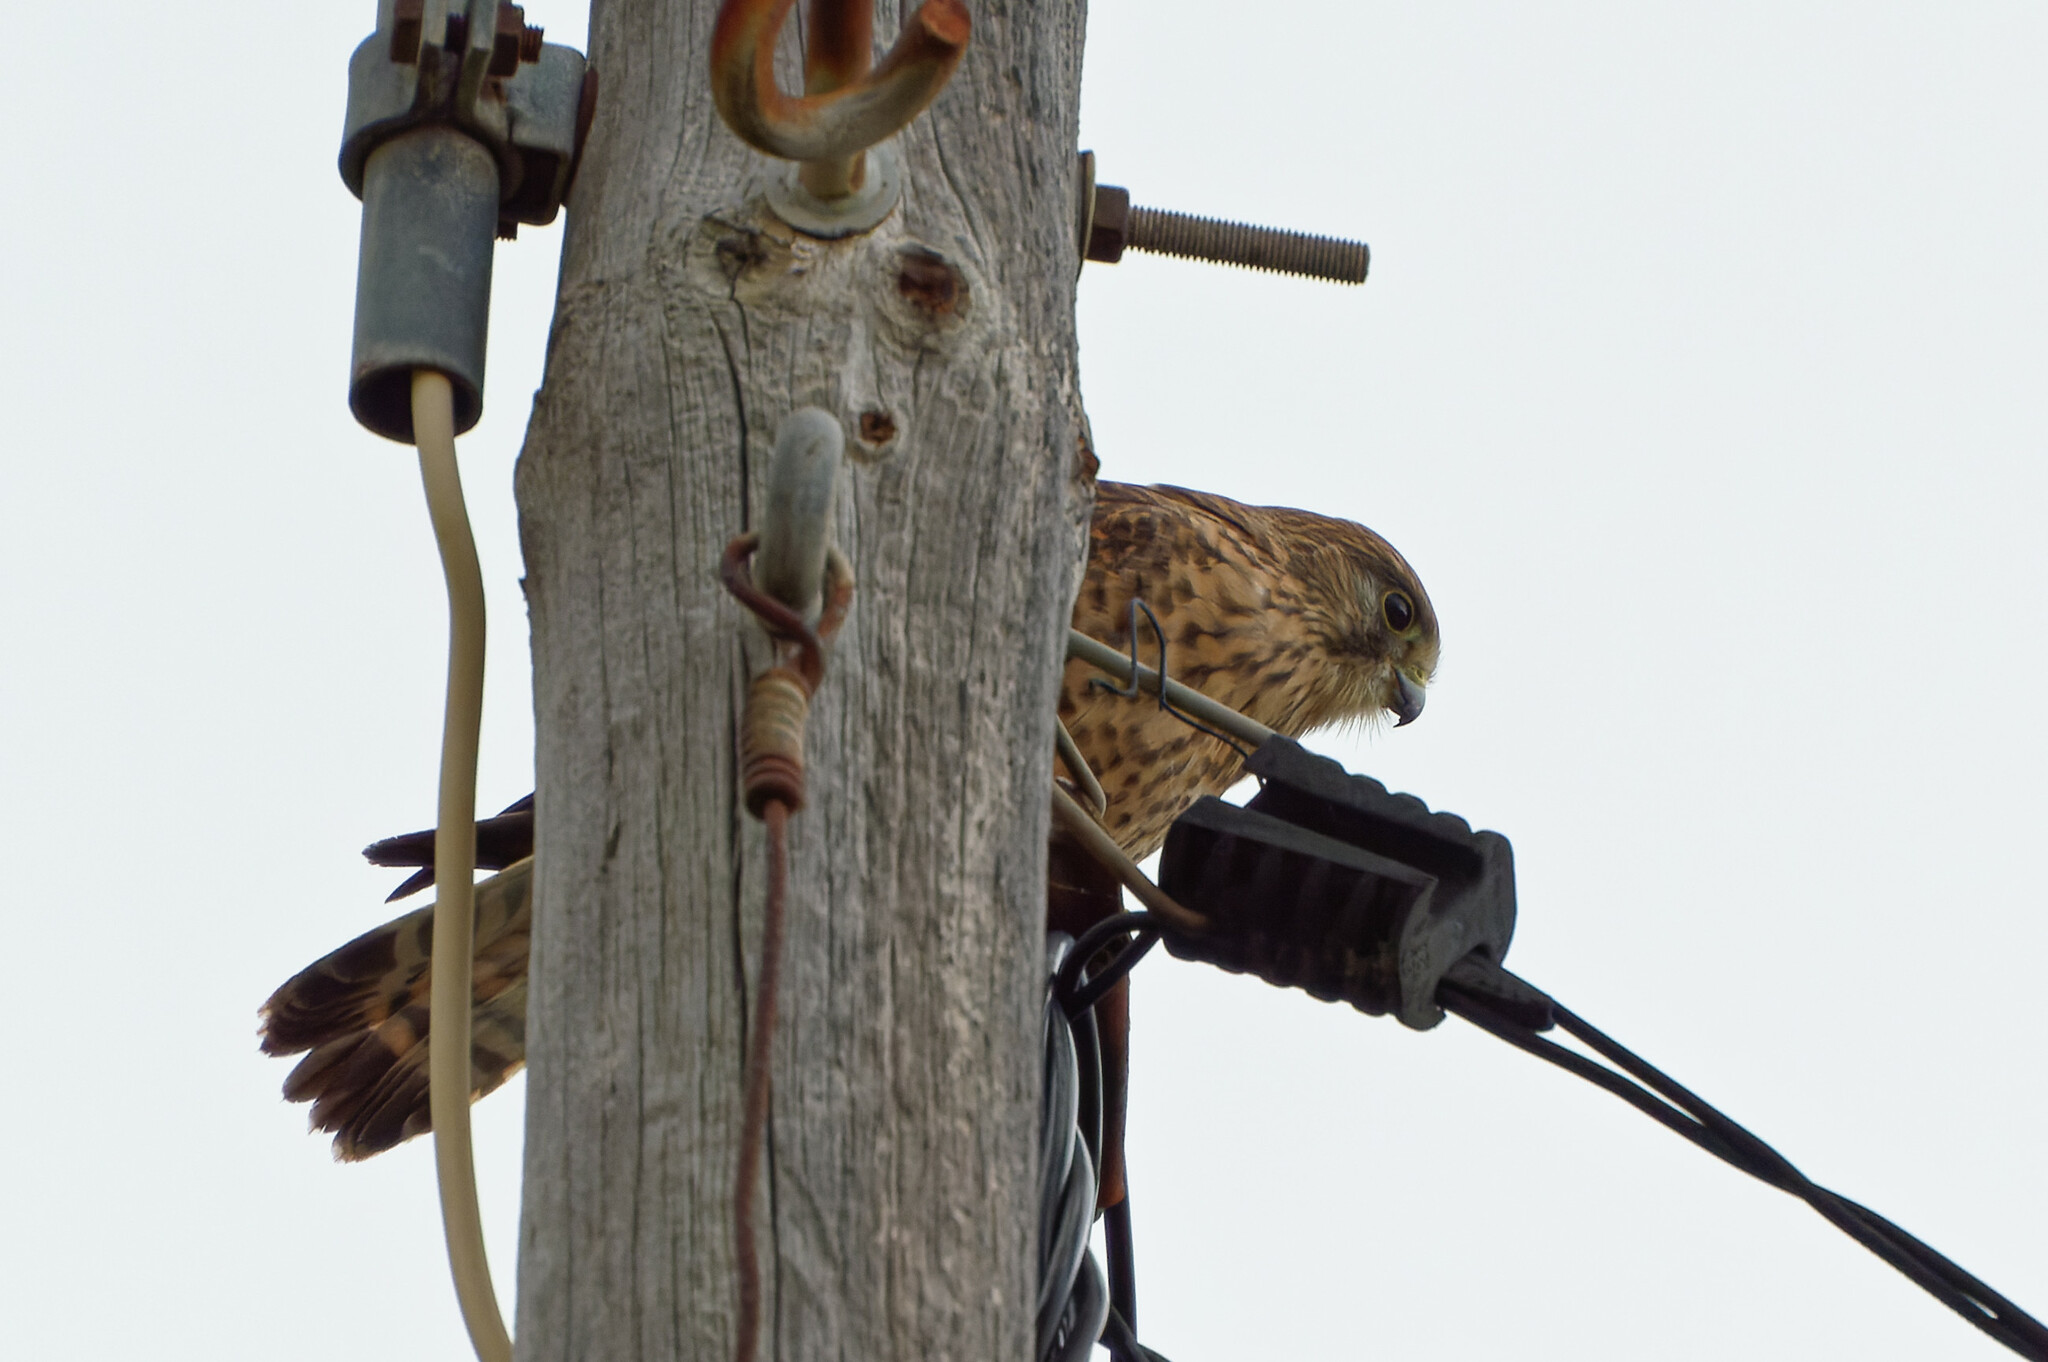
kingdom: Animalia
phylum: Chordata
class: Aves
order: Falconiformes
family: Falconidae
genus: Falco
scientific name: Falco tinnunculus
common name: Common kestrel
